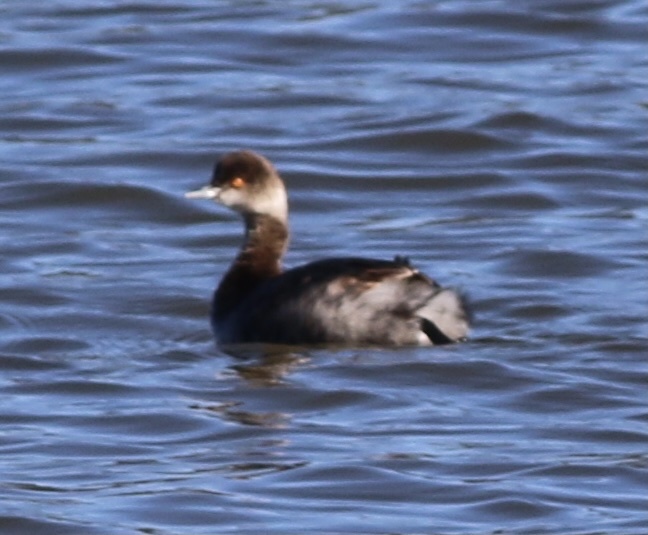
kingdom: Animalia
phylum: Chordata
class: Aves
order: Podicipediformes
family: Podicipedidae
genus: Podiceps
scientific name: Podiceps nigricollis
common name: Black-necked grebe
